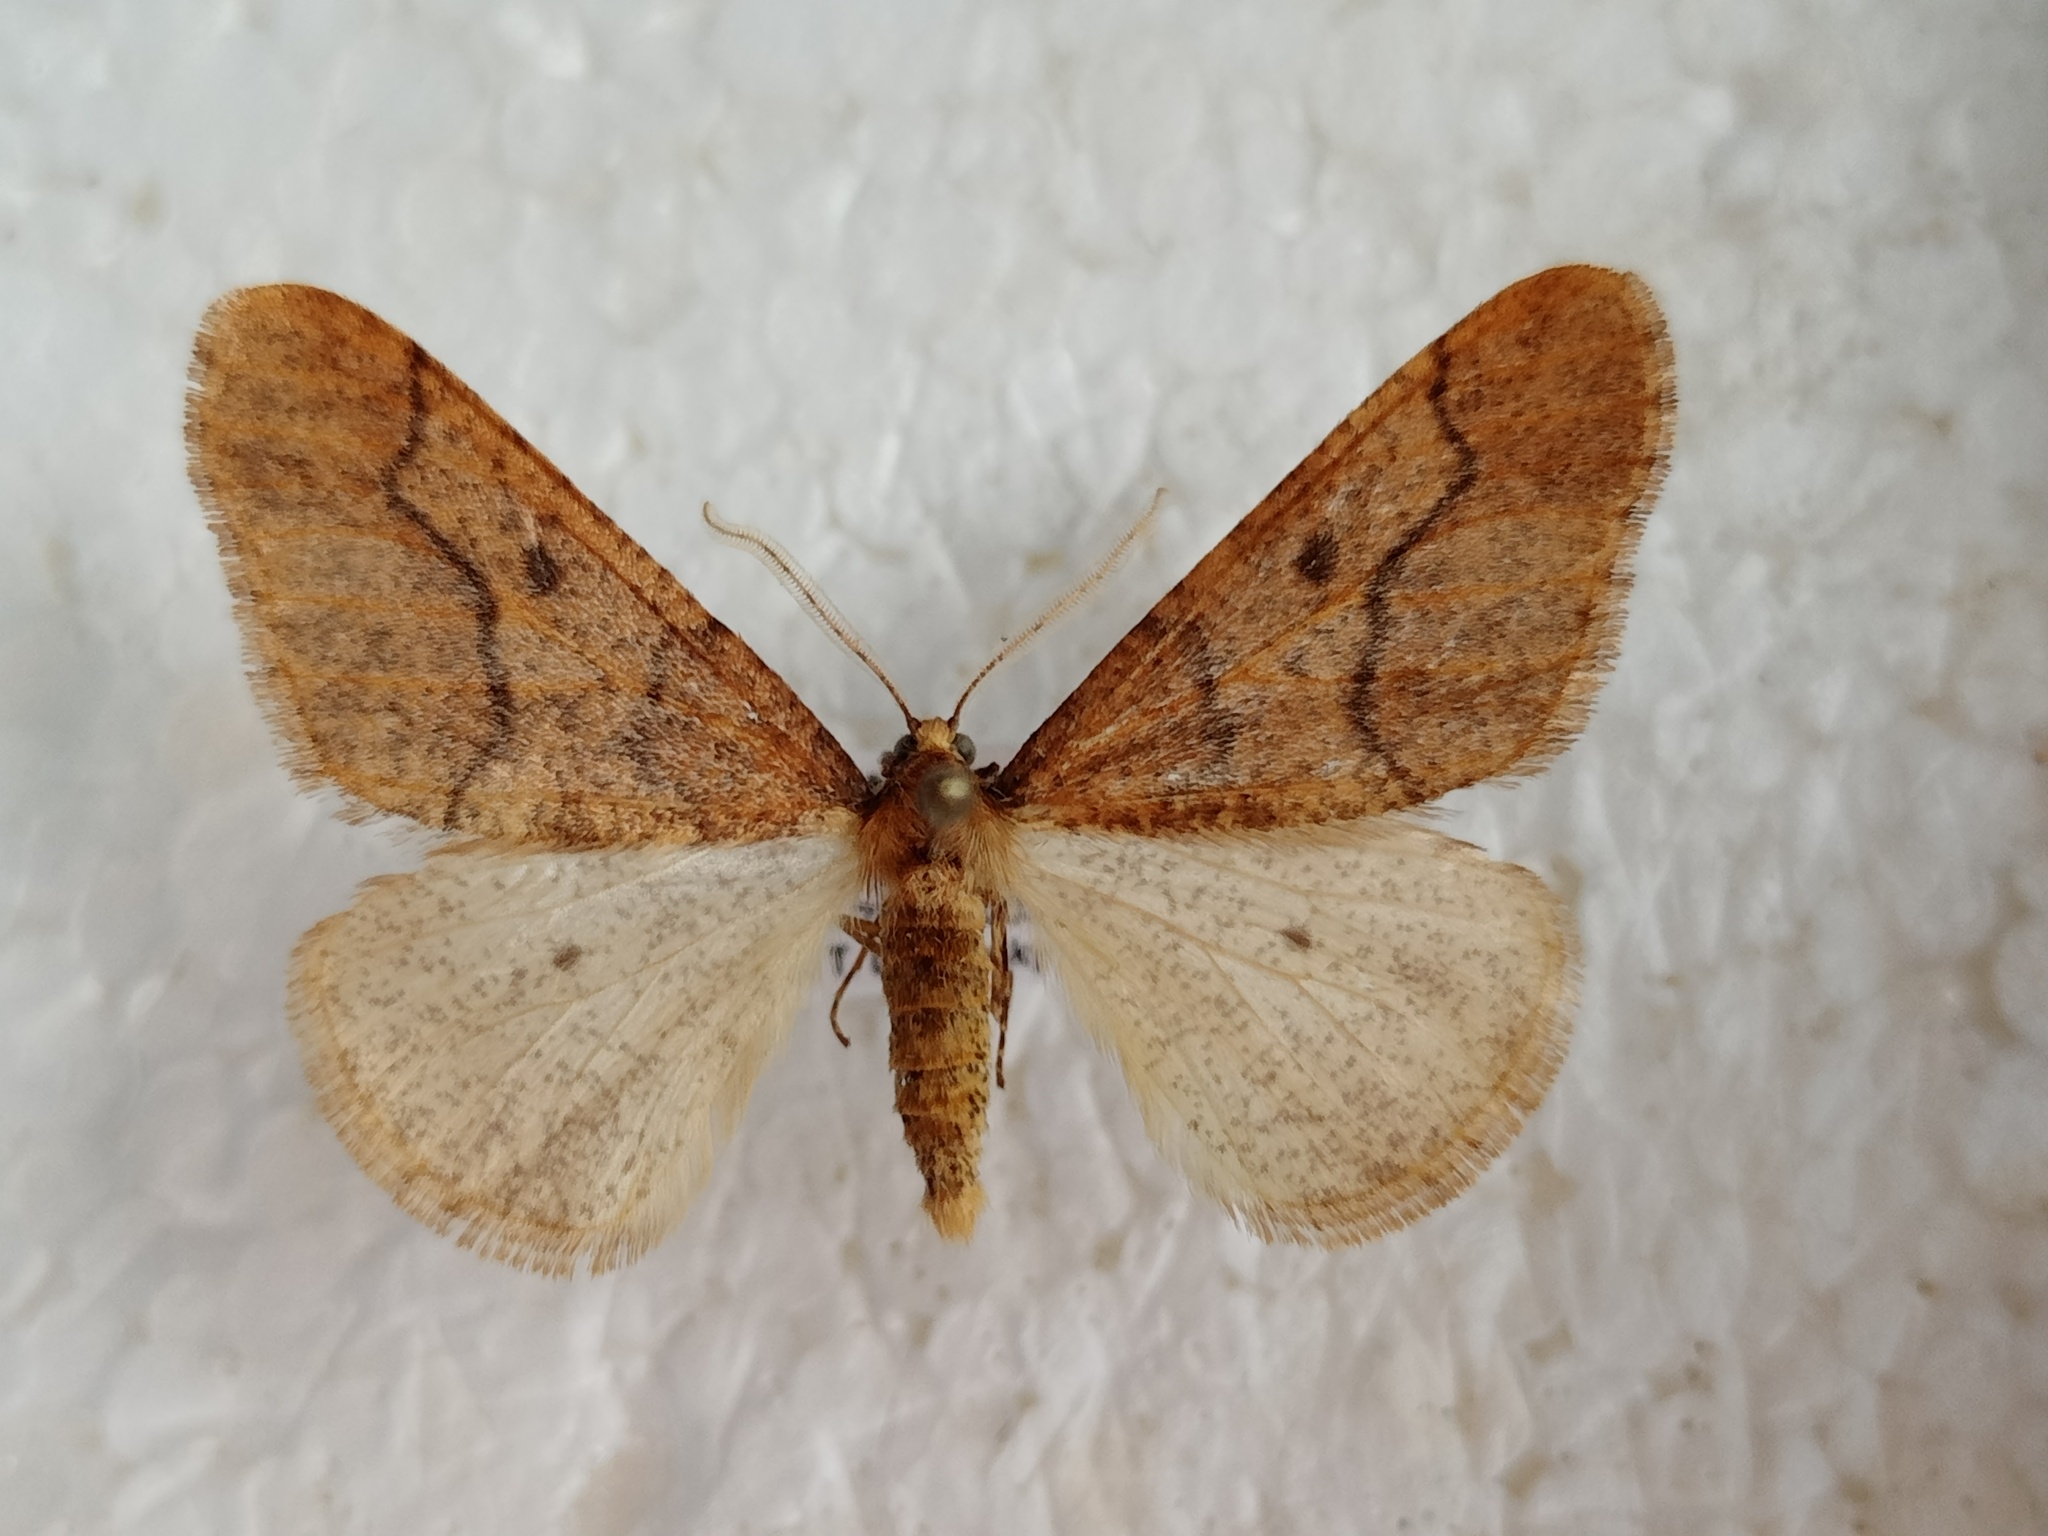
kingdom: Animalia
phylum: Arthropoda
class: Insecta
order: Lepidoptera
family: Geometridae
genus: Erannis
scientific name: Erannis defoliaria
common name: Mottled umber
